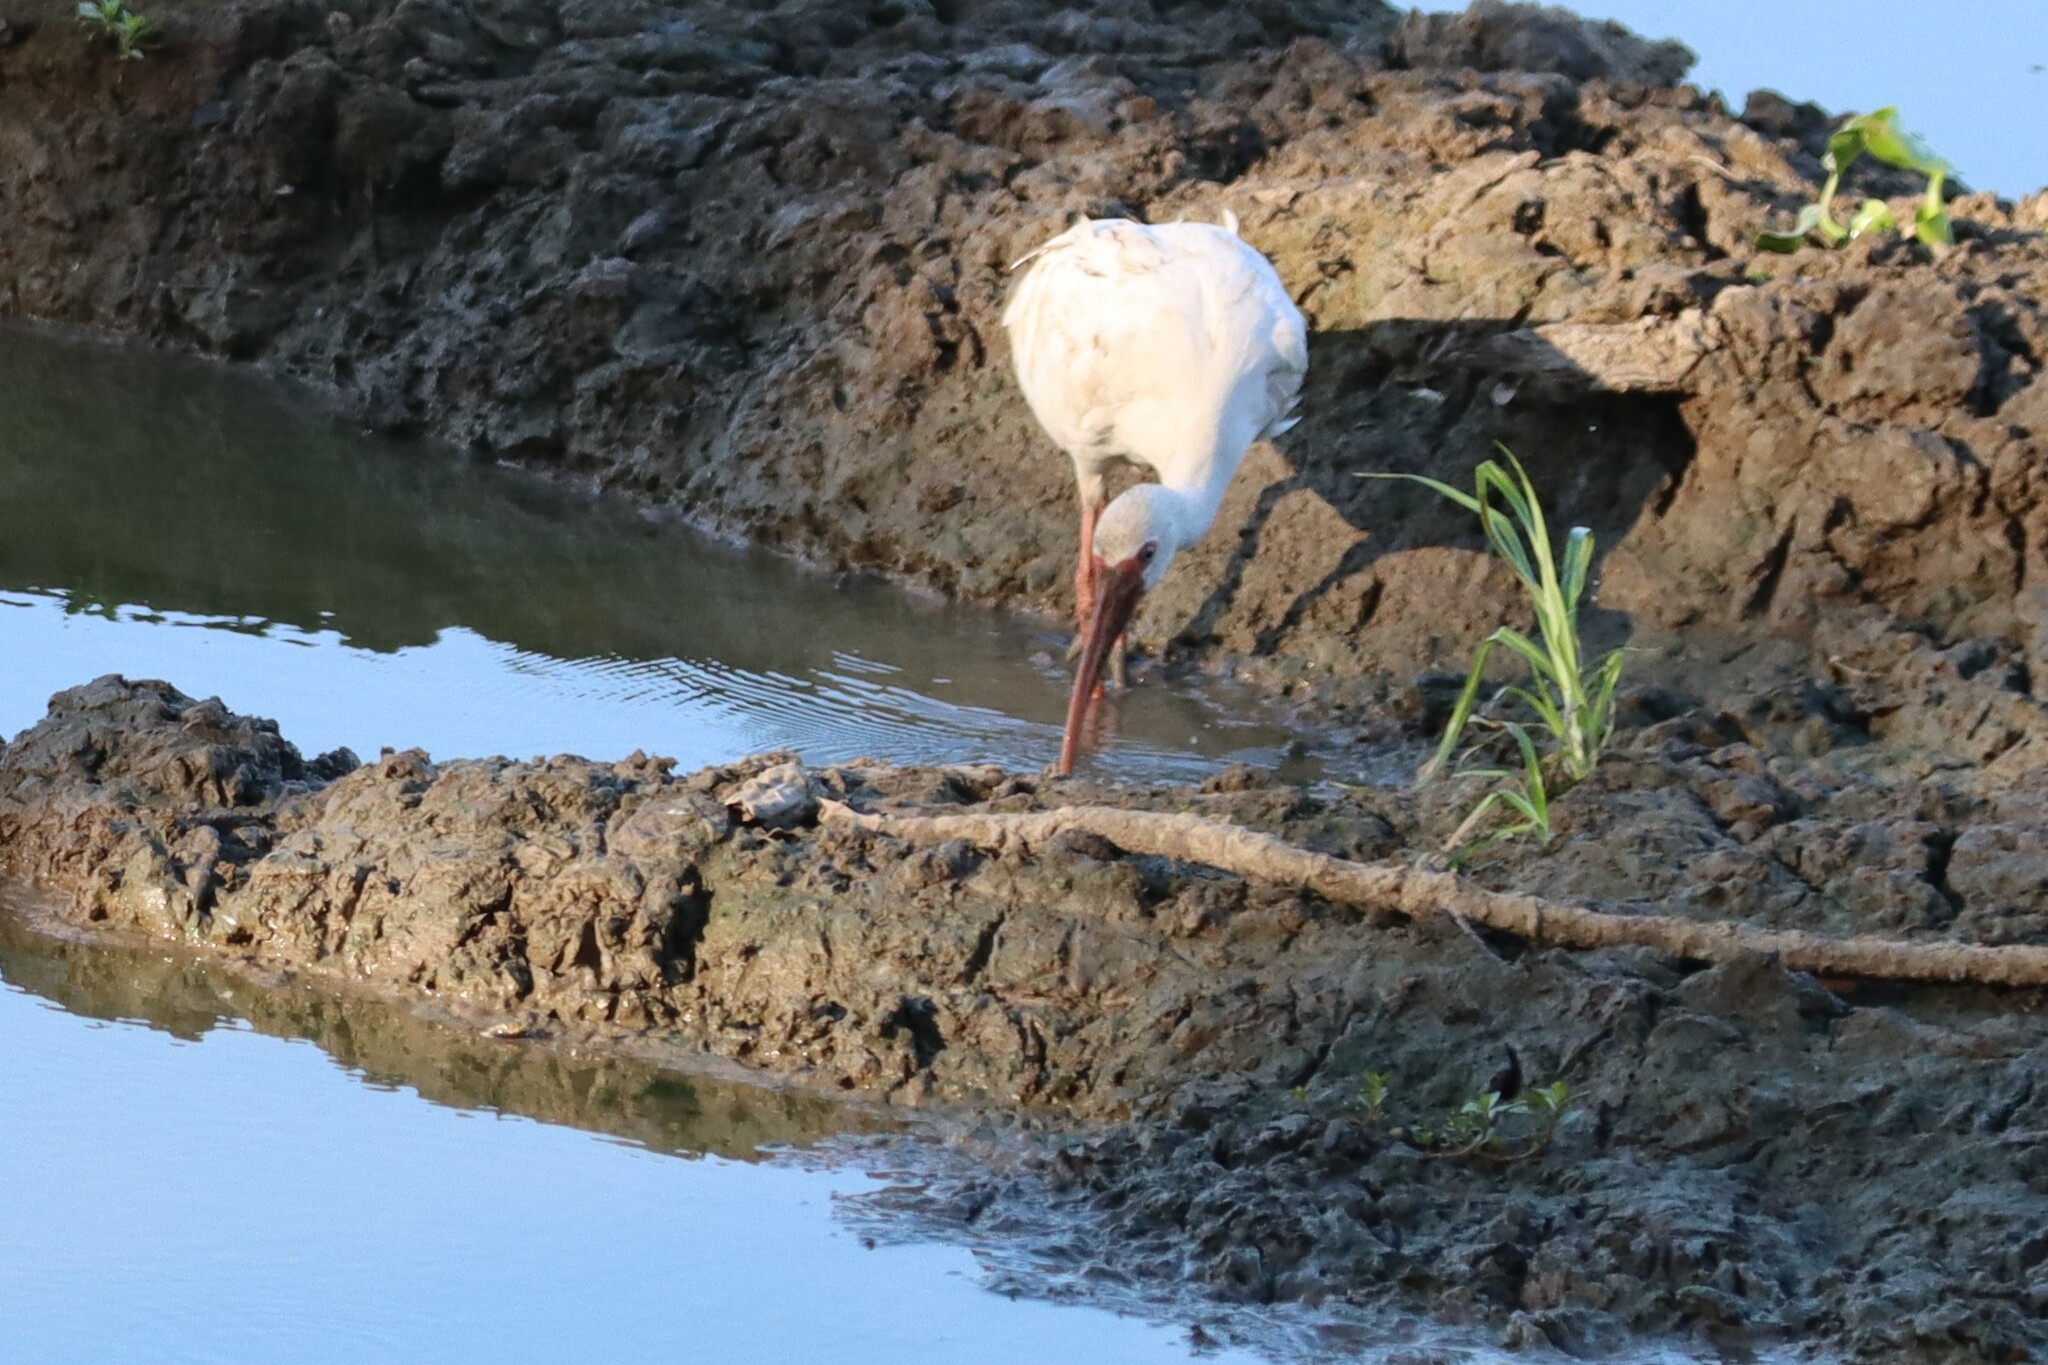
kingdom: Animalia
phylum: Chordata
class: Aves
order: Pelecaniformes
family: Threskiornithidae
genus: Eudocimus
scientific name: Eudocimus albus
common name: White ibis
